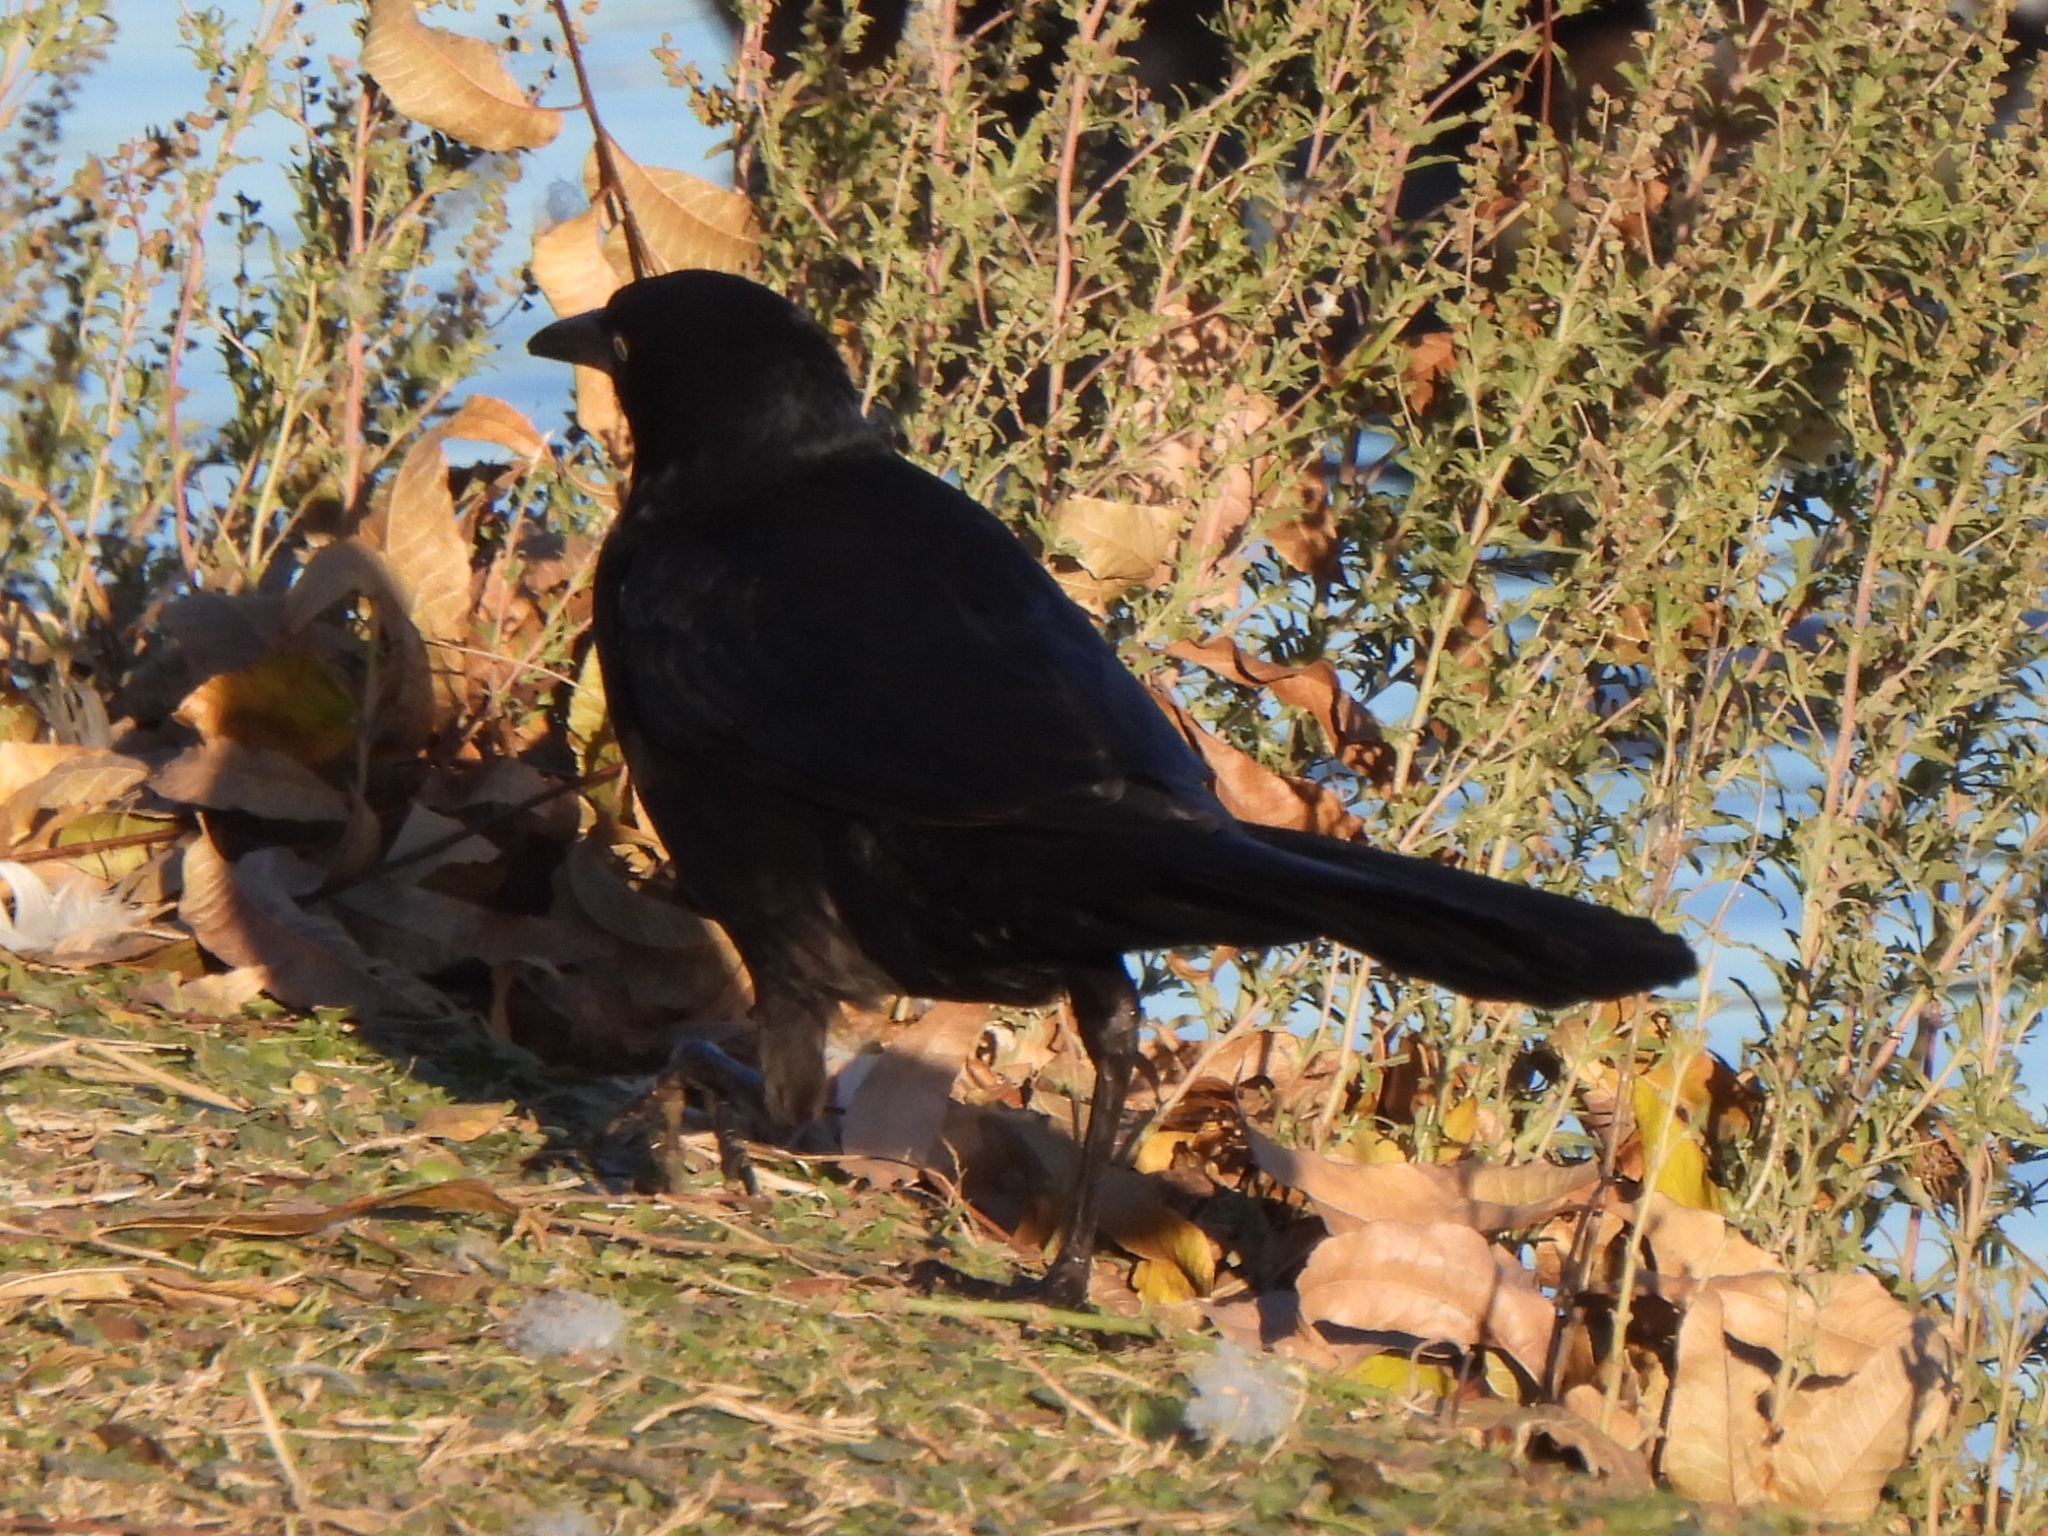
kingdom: Animalia
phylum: Chordata
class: Aves
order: Passeriformes
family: Icteridae
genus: Quiscalus
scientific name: Quiscalus mexicanus
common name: Great-tailed grackle
